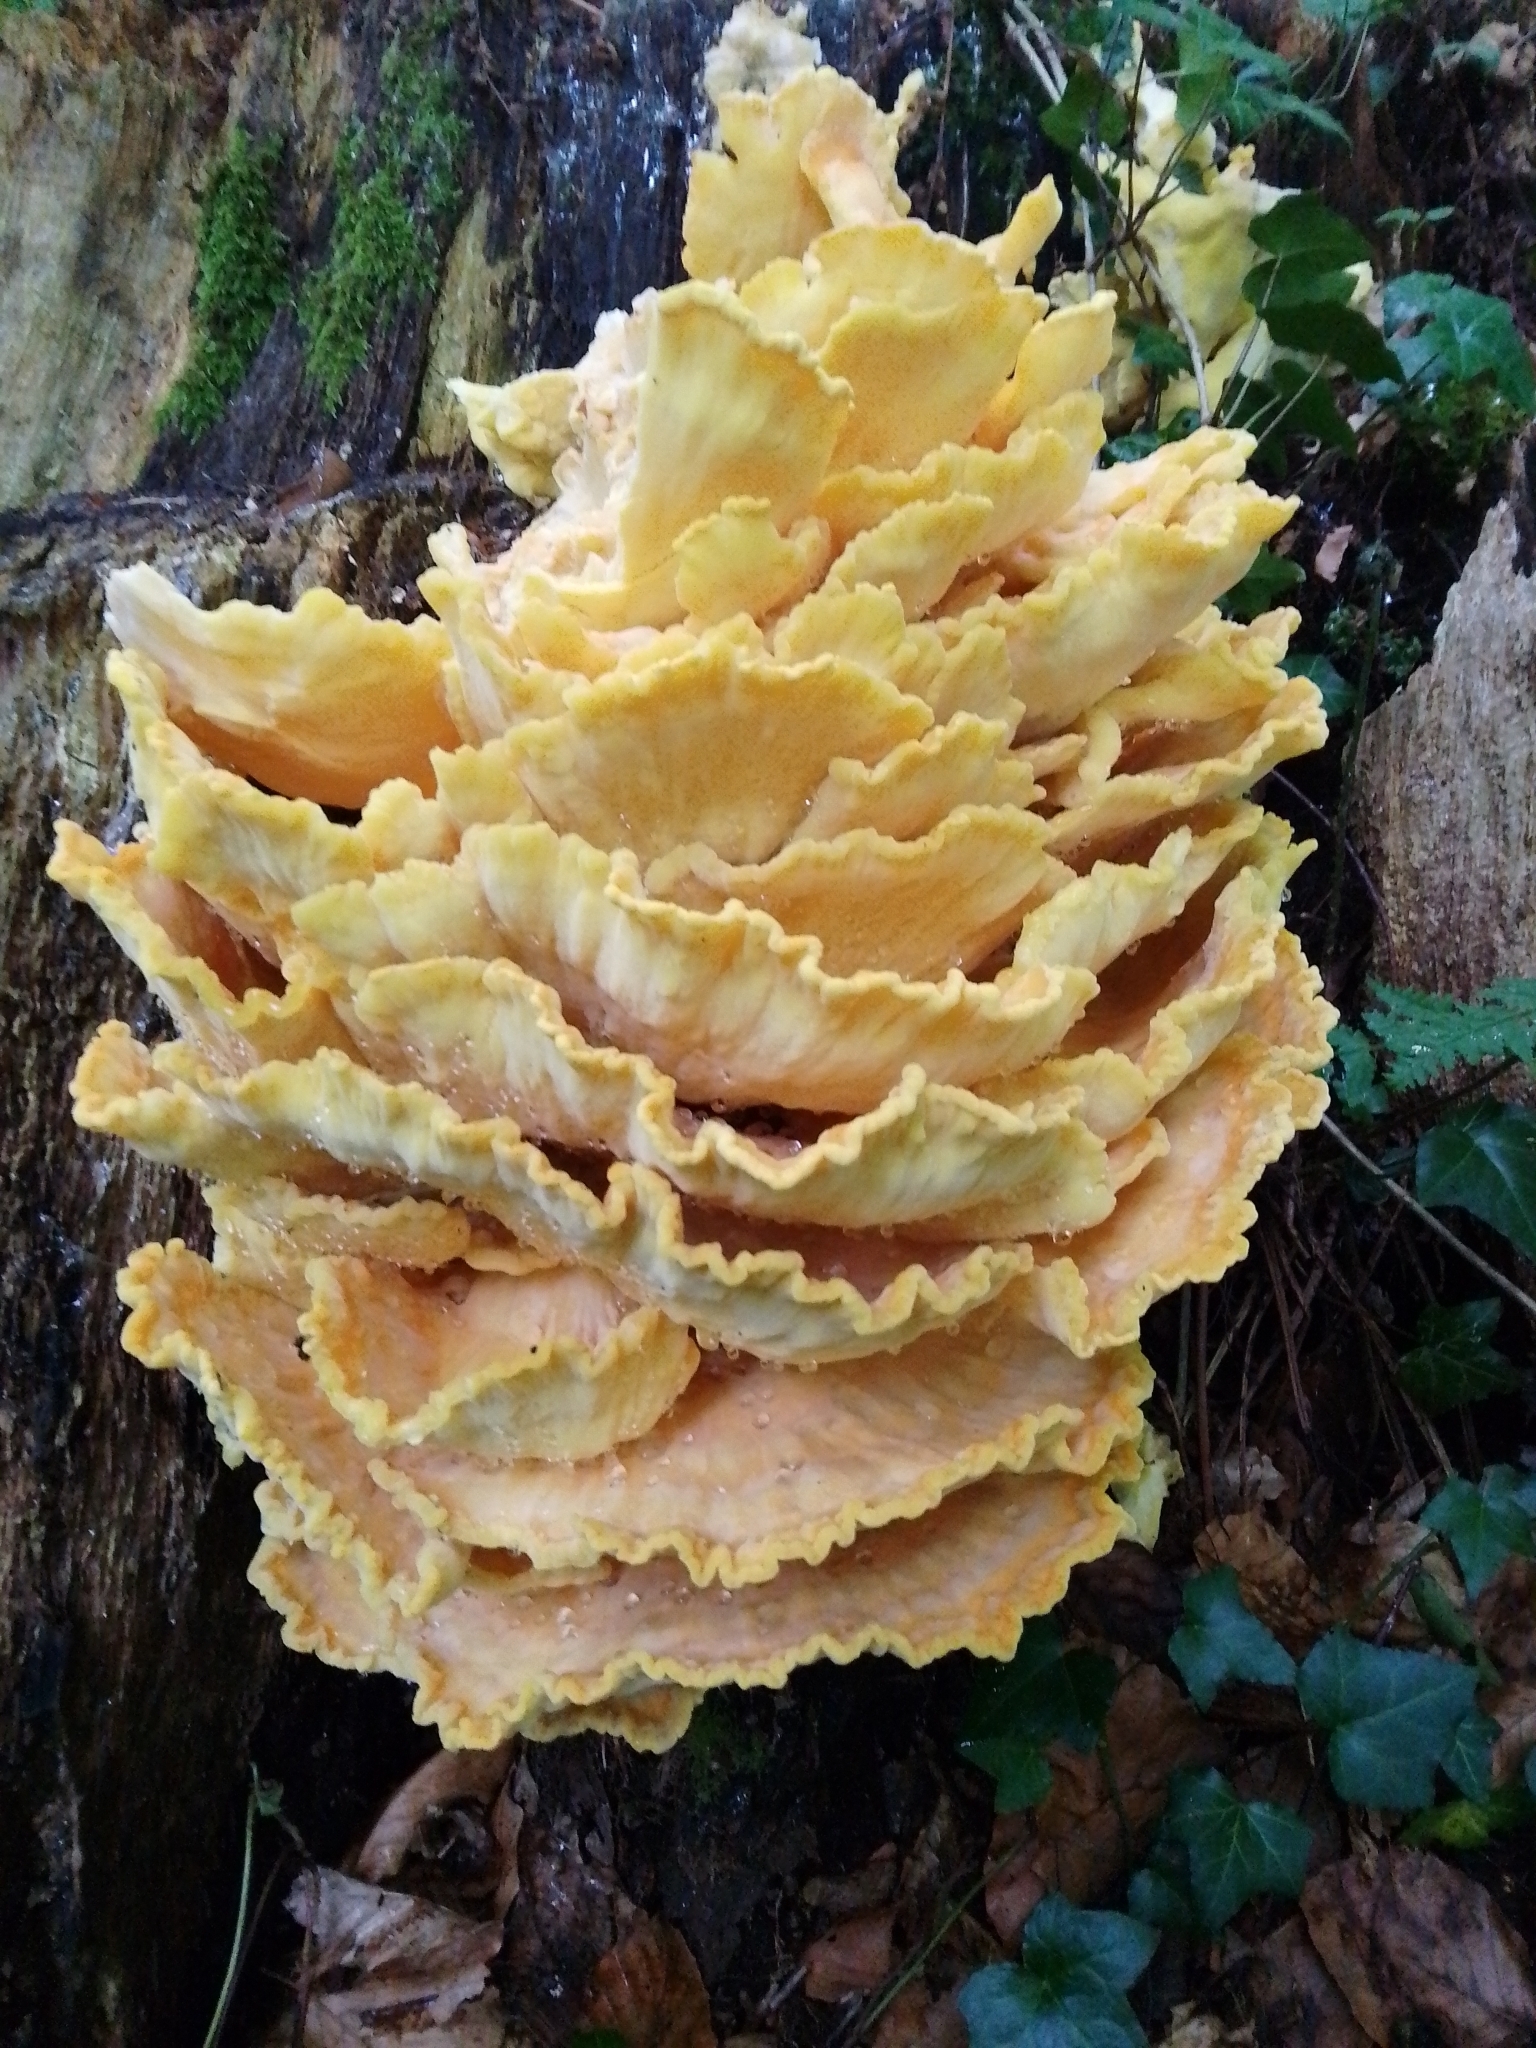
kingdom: Fungi
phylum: Basidiomycota
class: Agaricomycetes
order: Polyporales
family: Laetiporaceae
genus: Laetiporus
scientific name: Laetiporus sulphureus
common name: Chicken of the woods
